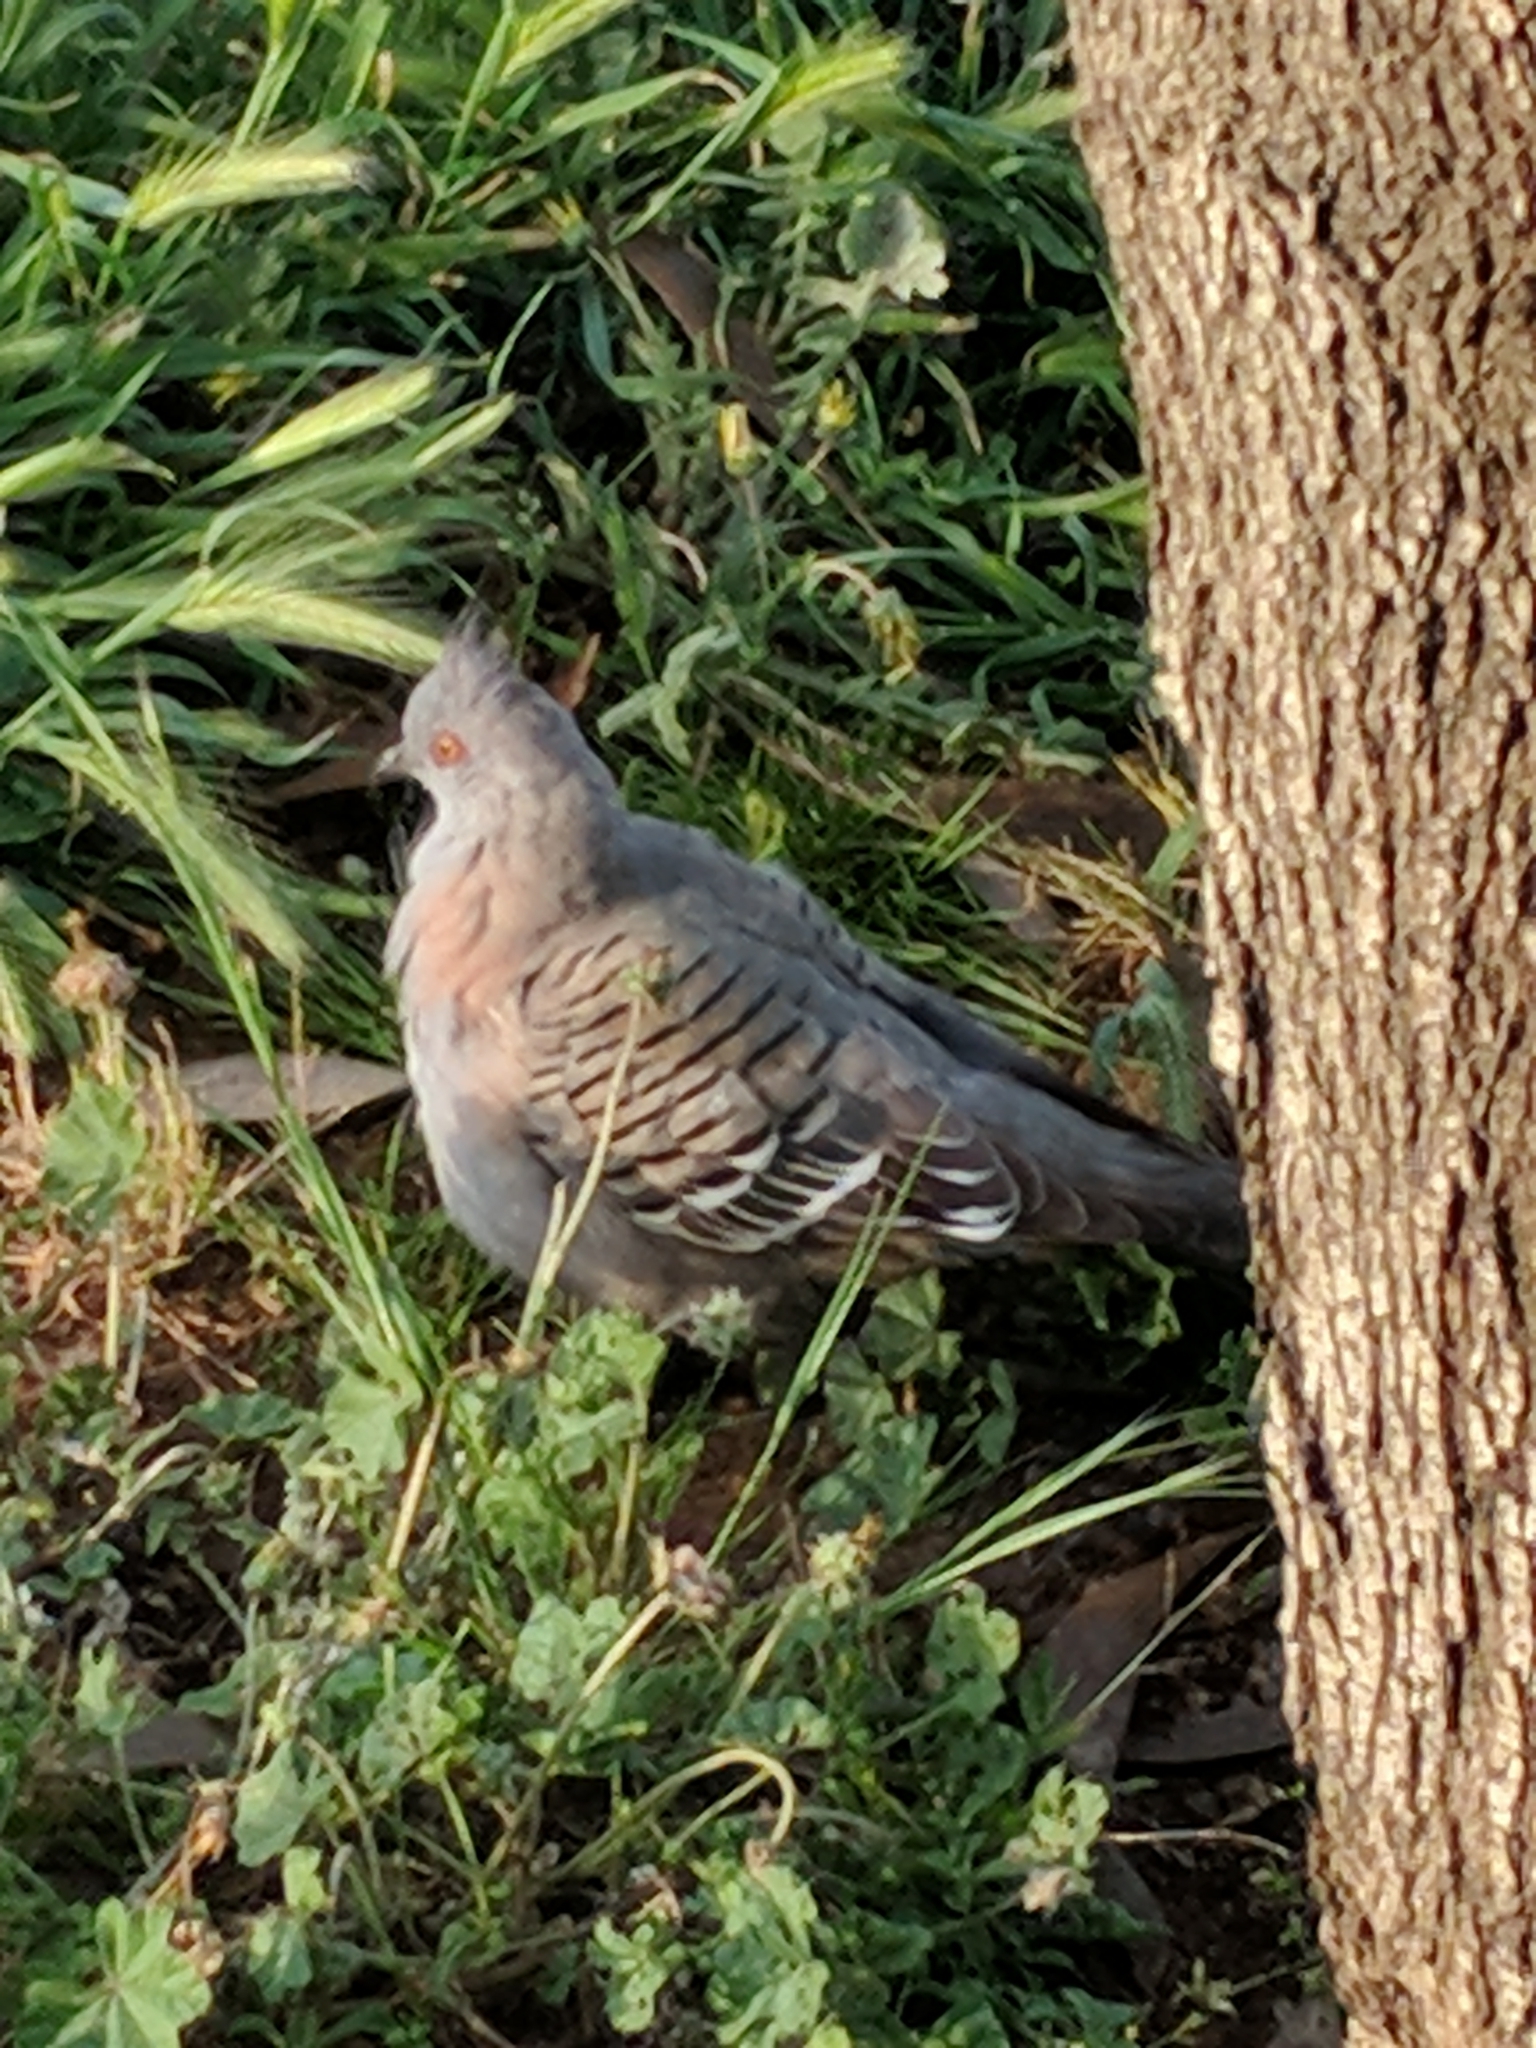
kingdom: Animalia
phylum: Chordata
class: Aves
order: Columbiformes
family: Columbidae
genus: Ocyphaps
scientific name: Ocyphaps lophotes
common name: Crested pigeon
